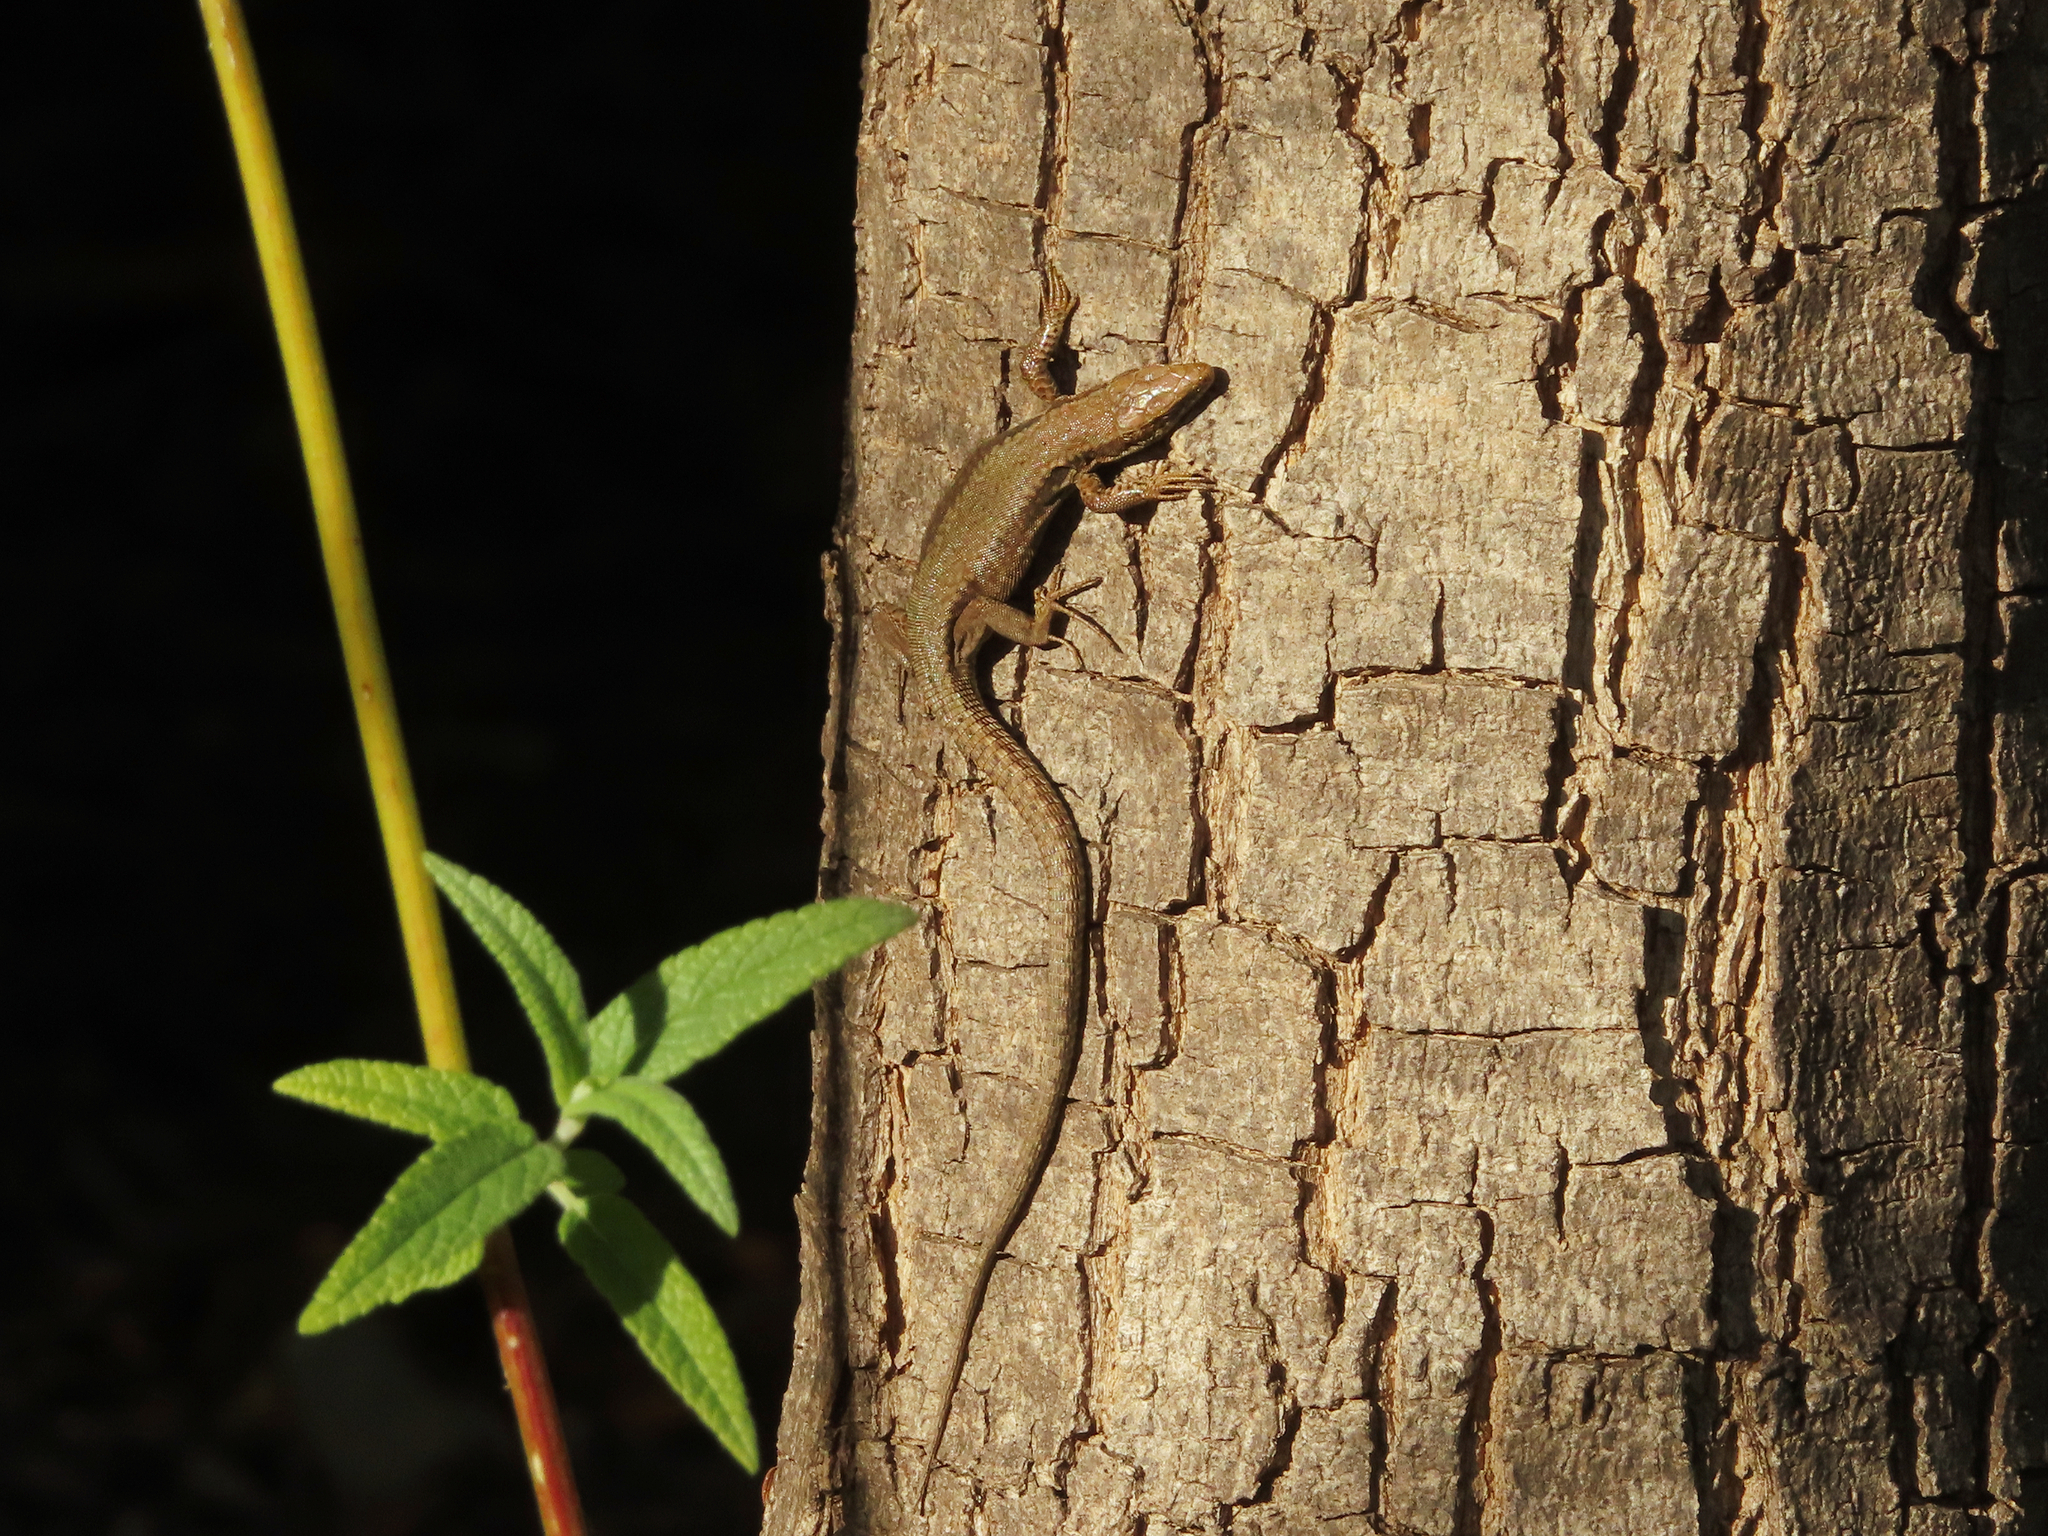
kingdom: Animalia
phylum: Chordata
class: Squamata
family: Lacertidae
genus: Podarcis
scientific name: Podarcis muralis
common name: Common wall lizard
